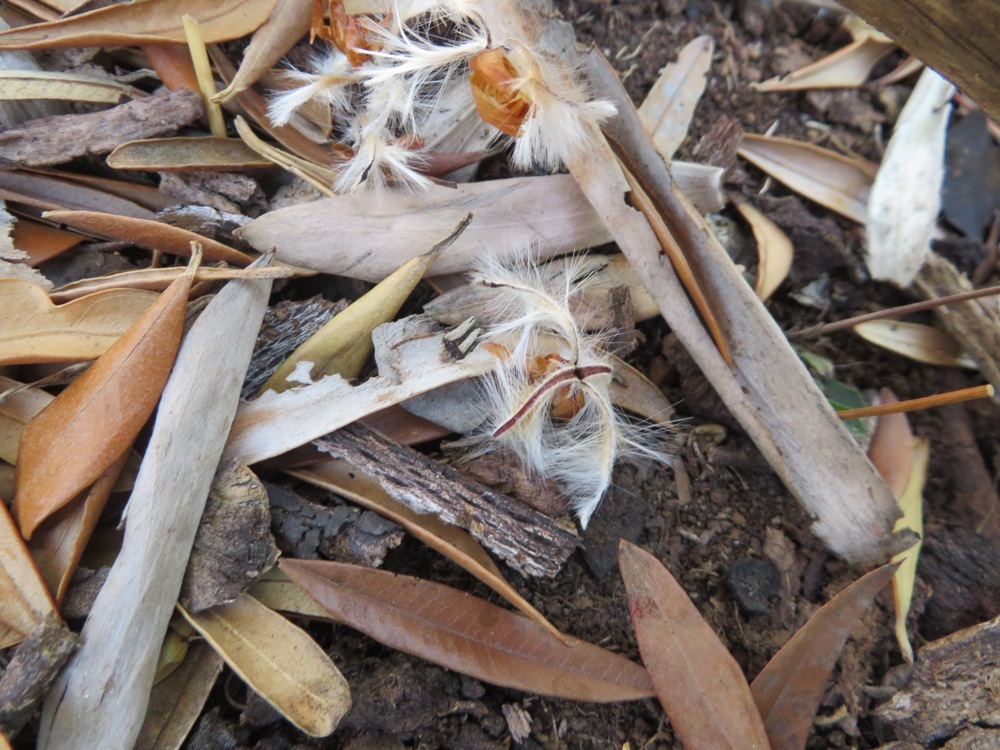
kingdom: Plantae
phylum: Tracheophyta
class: Magnoliopsida
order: Proteales
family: Proteaceae
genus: Leucadendron
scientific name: Leucadendron argenteum
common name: Cape silver tree
